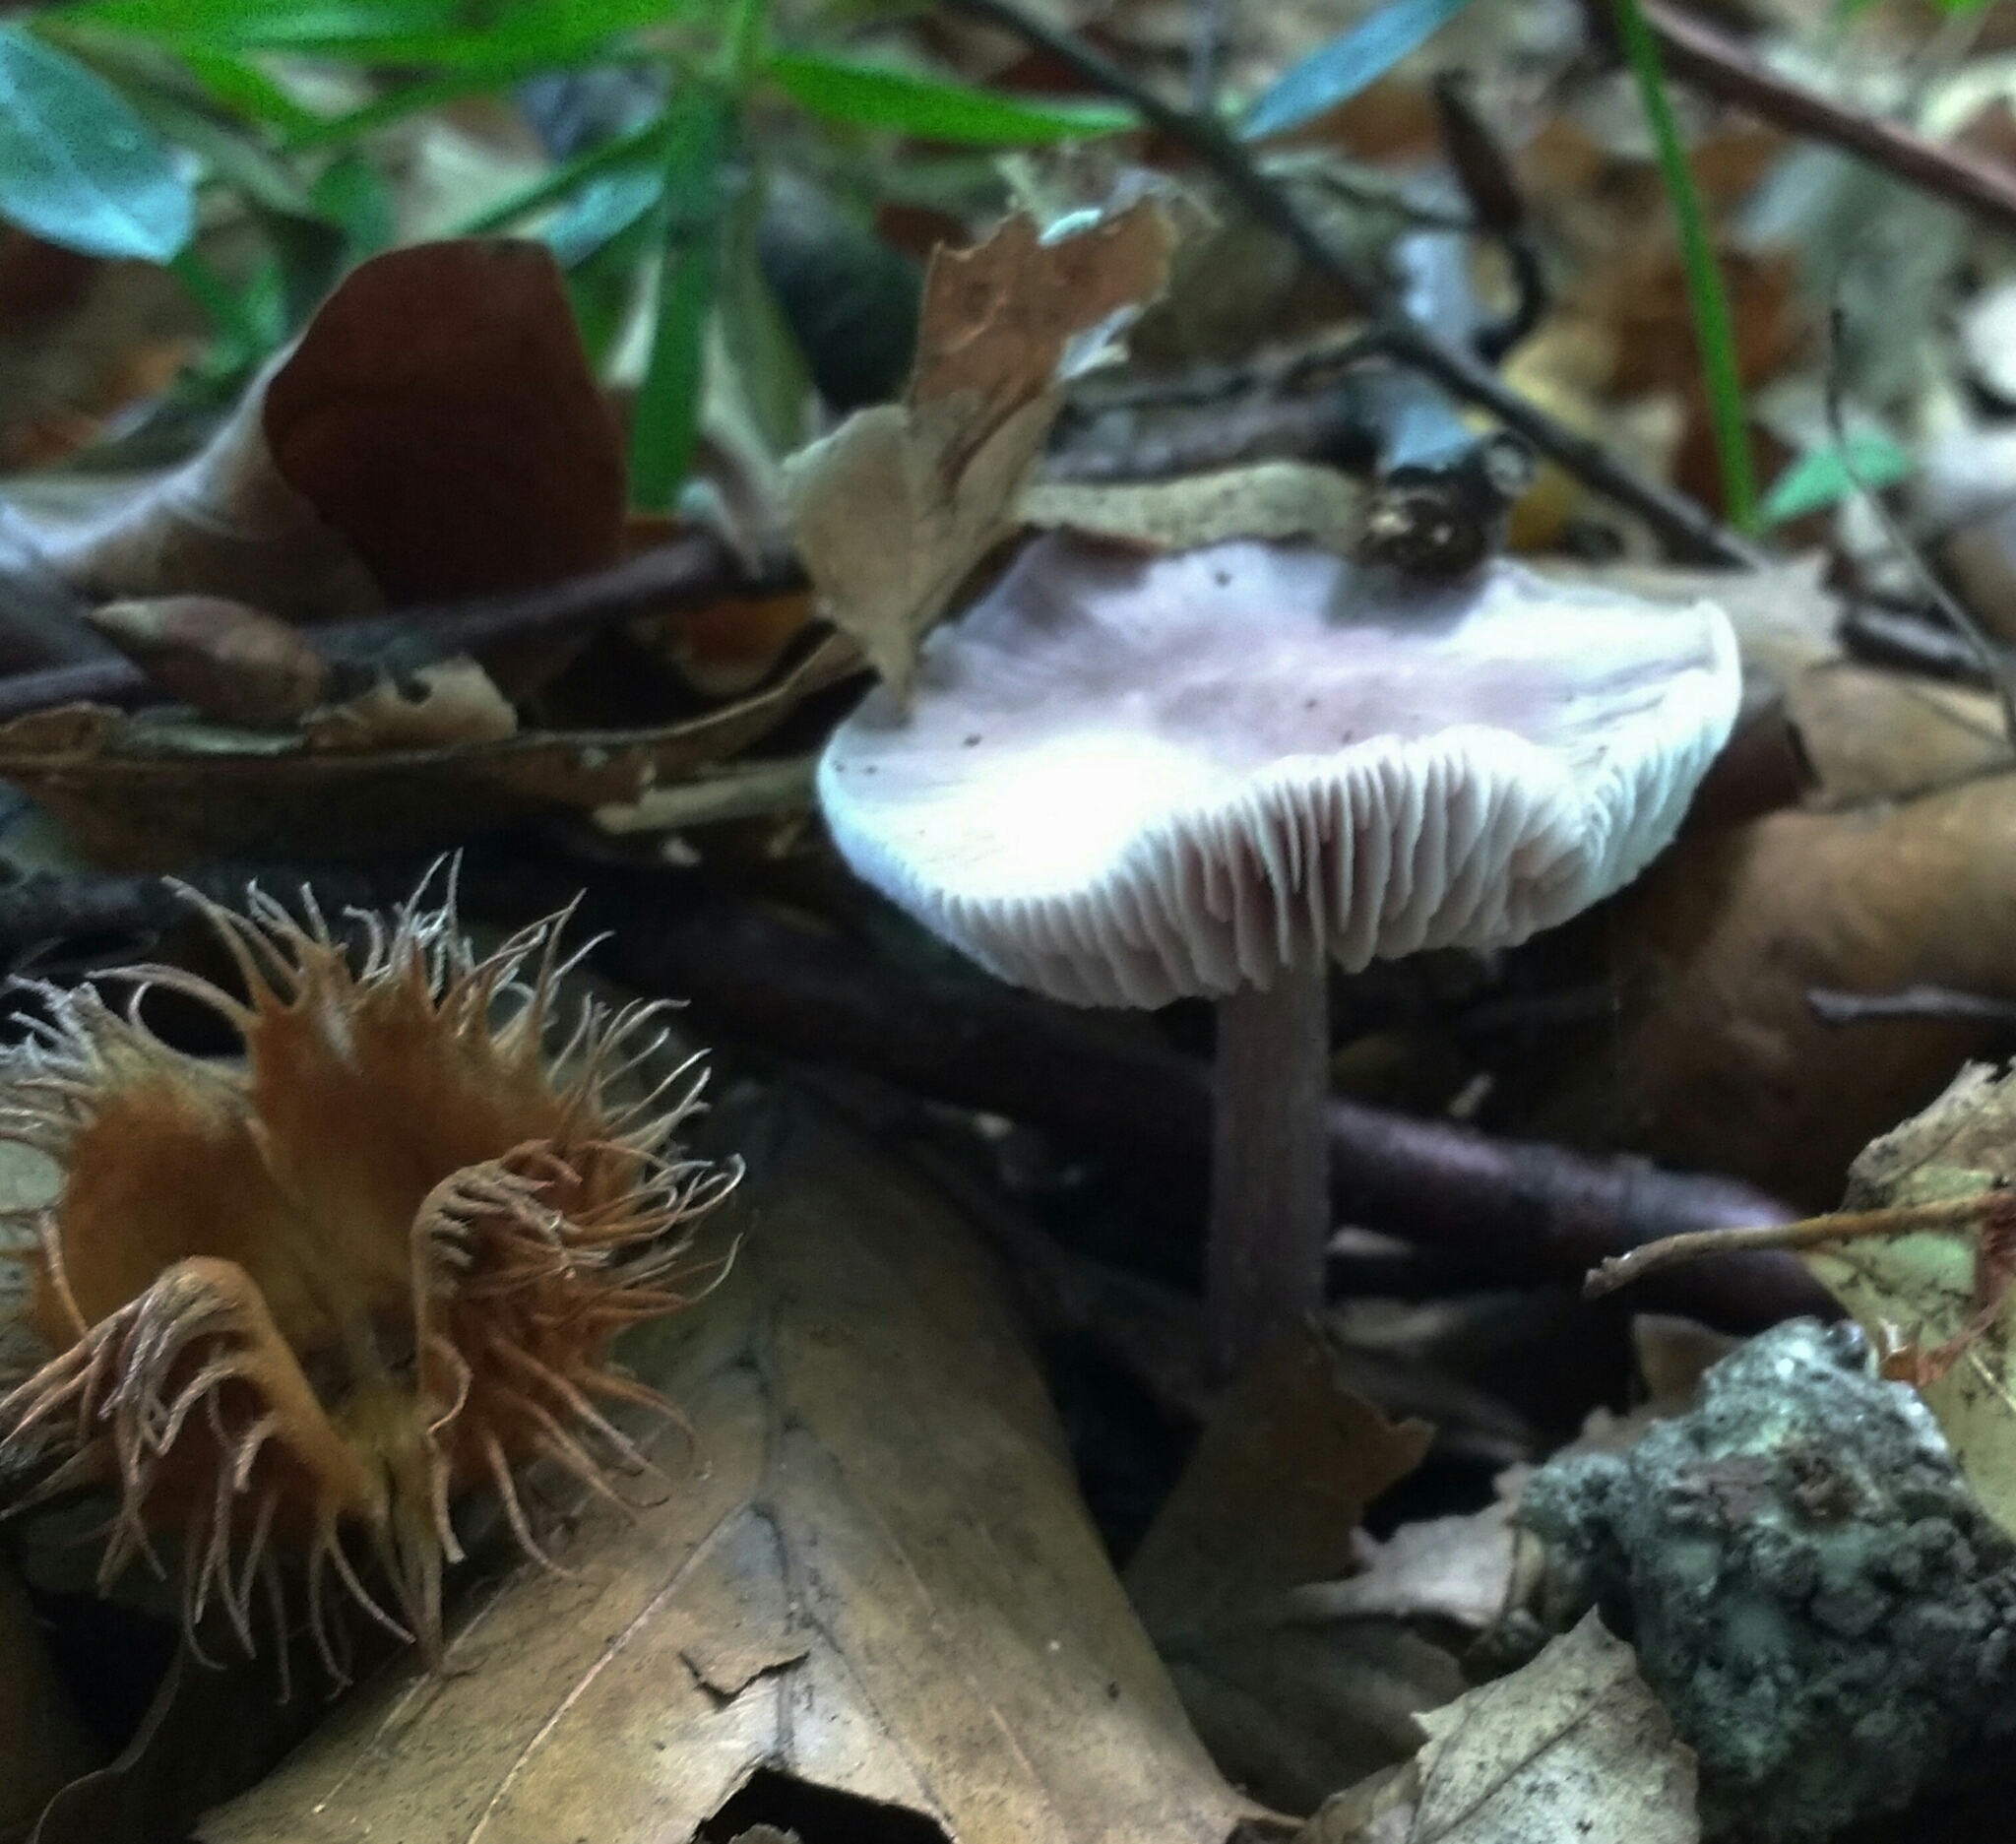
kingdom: Fungi
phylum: Basidiomycota
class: Agaricomycetes
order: Agaricales
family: Mycenaceae
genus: Mycena
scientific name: Mycena pura
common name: Lilac bonnet
